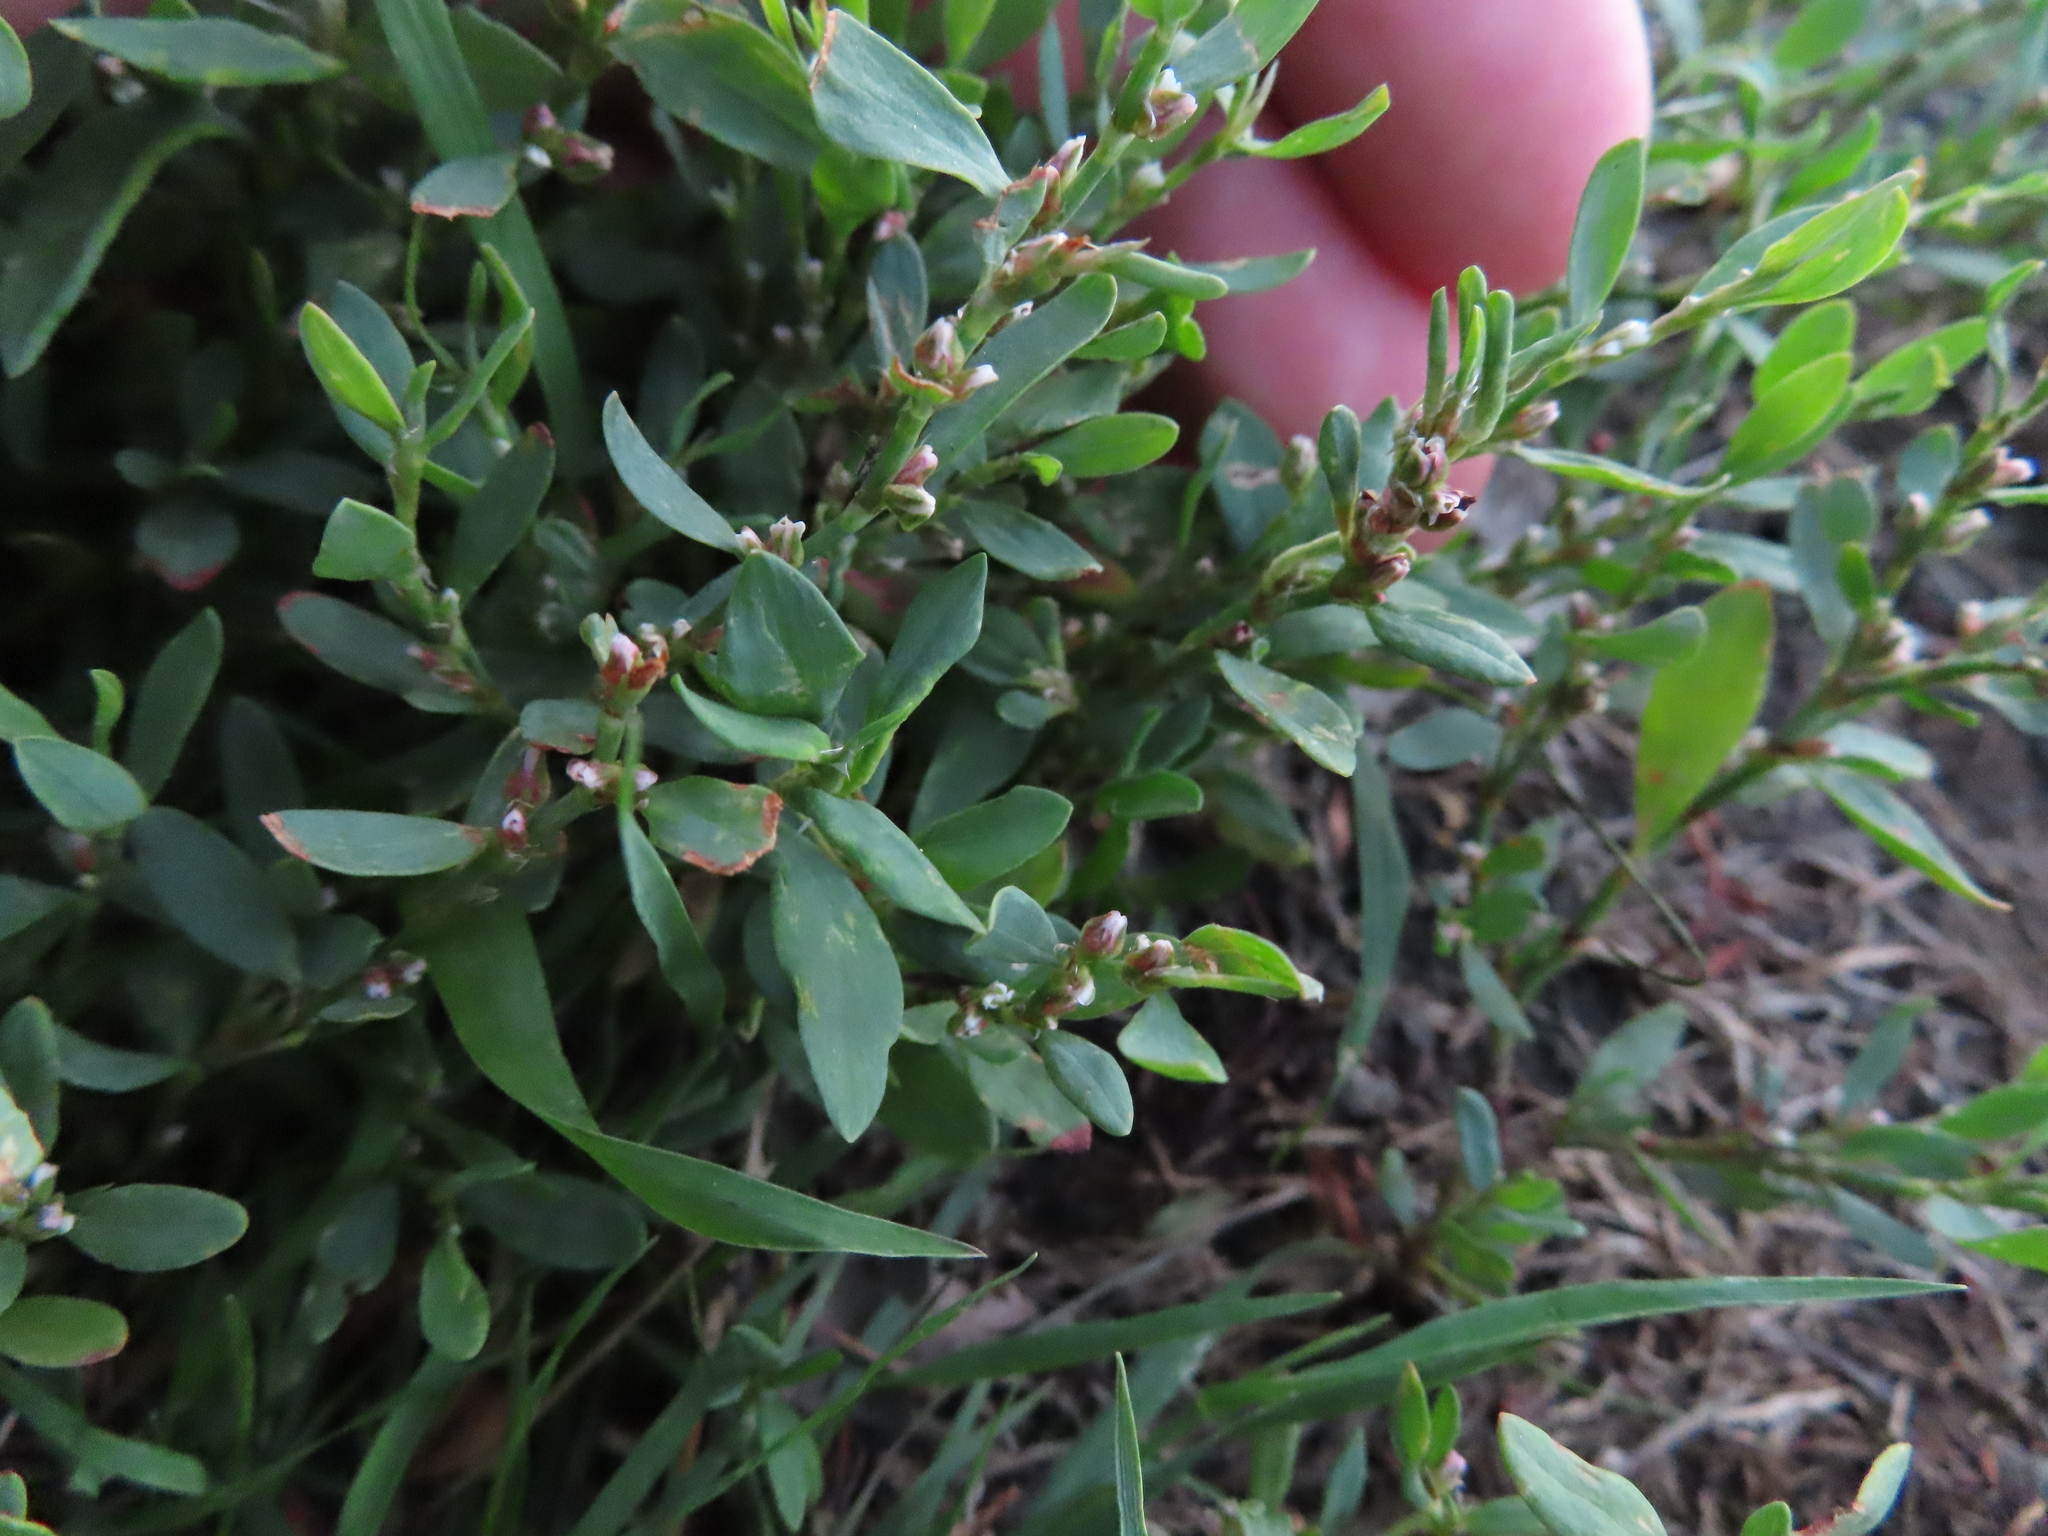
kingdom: Plantae
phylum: Tracheophyta
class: Magnoliopsida
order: Caryophyllales
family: Polygonaceae
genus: Polygonum
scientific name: Polygonum aviculare
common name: Prostrate knotweed
